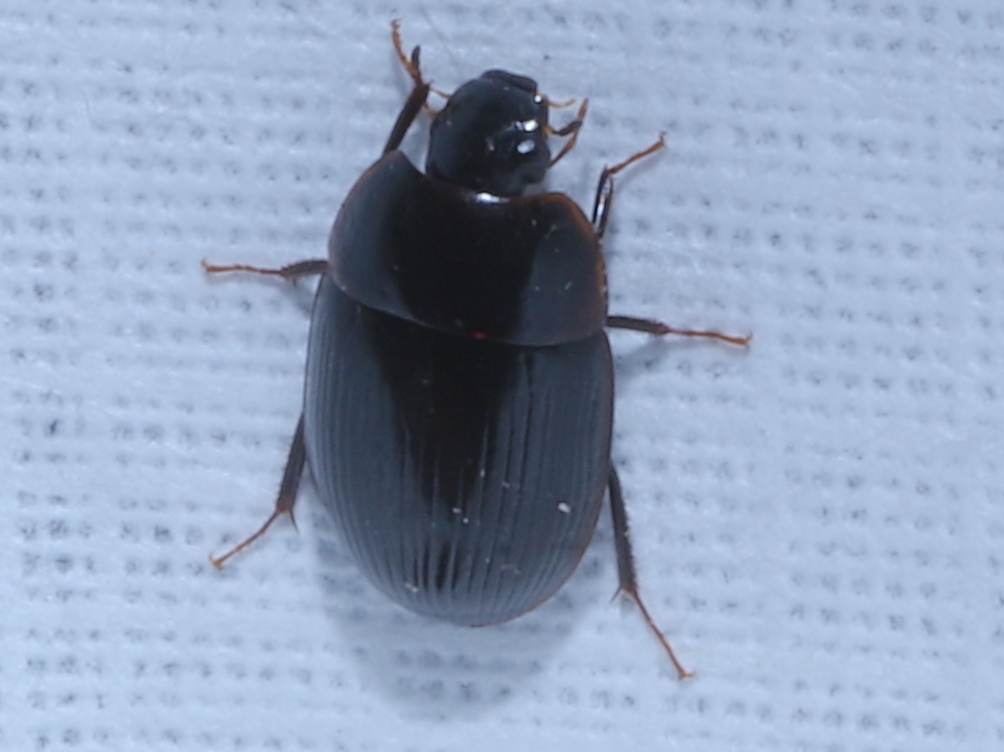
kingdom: Animalia
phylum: Arthropoda
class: Insecta
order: Coleoptera
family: Hydrophilidae
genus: Cymbiodyta
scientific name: Cymbiodyta bifida
